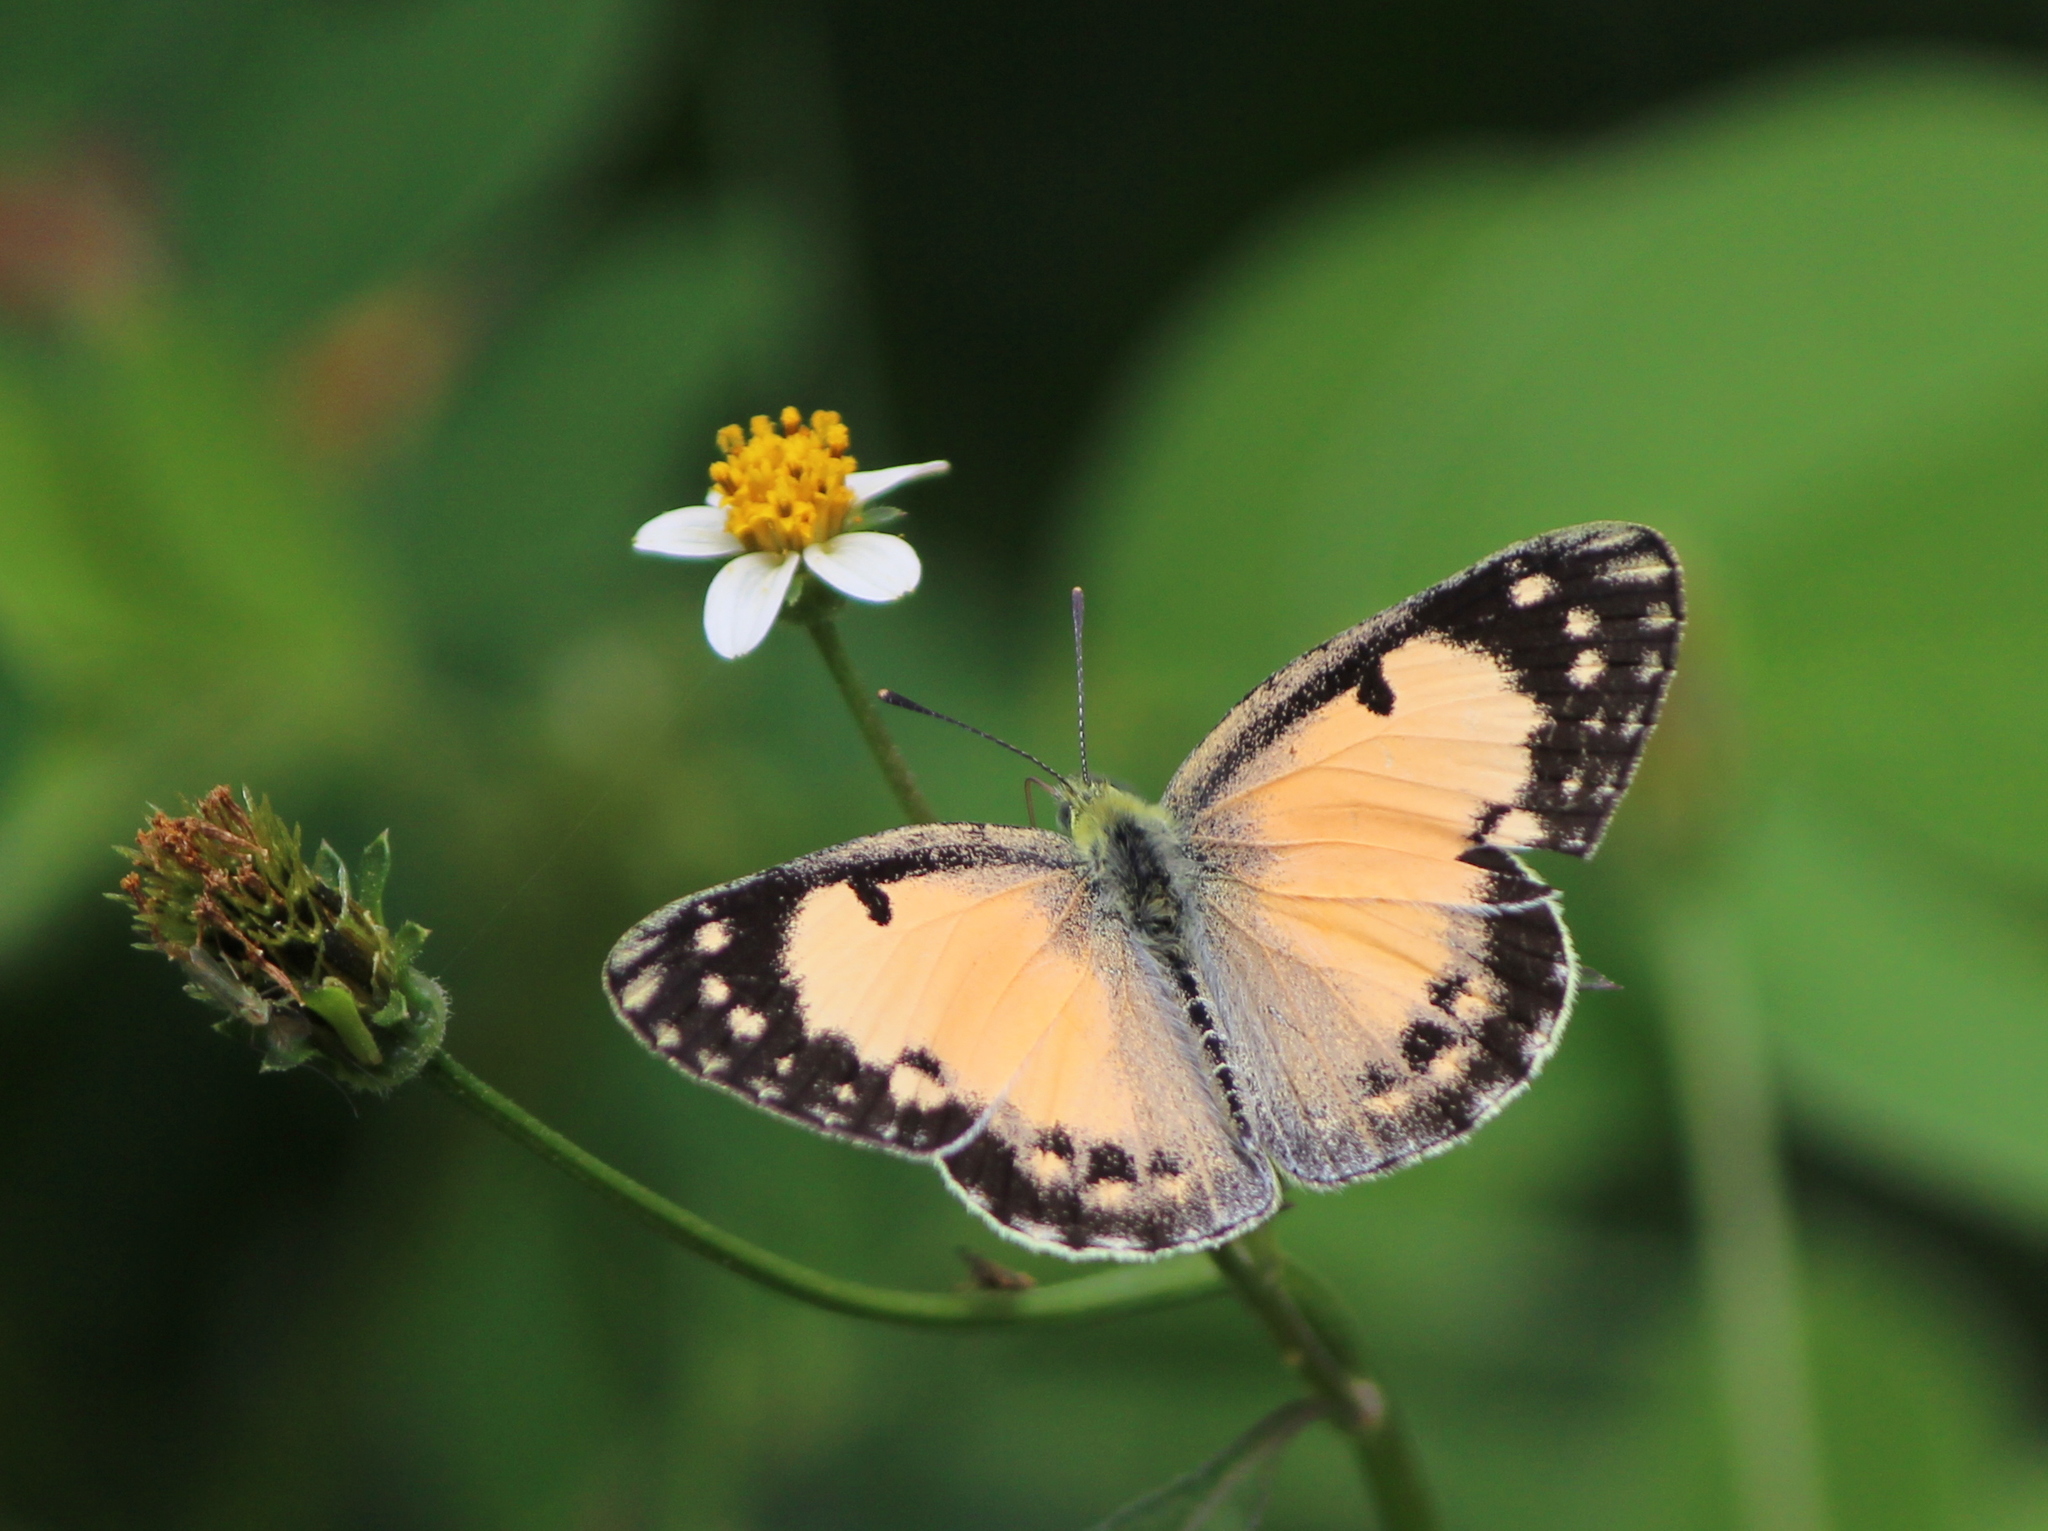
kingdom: Animalia
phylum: Arthropoda
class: Insecta
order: Lepidoptera
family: Pieridae
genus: Colotis
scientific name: Colotis amata
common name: Small salmon arab
